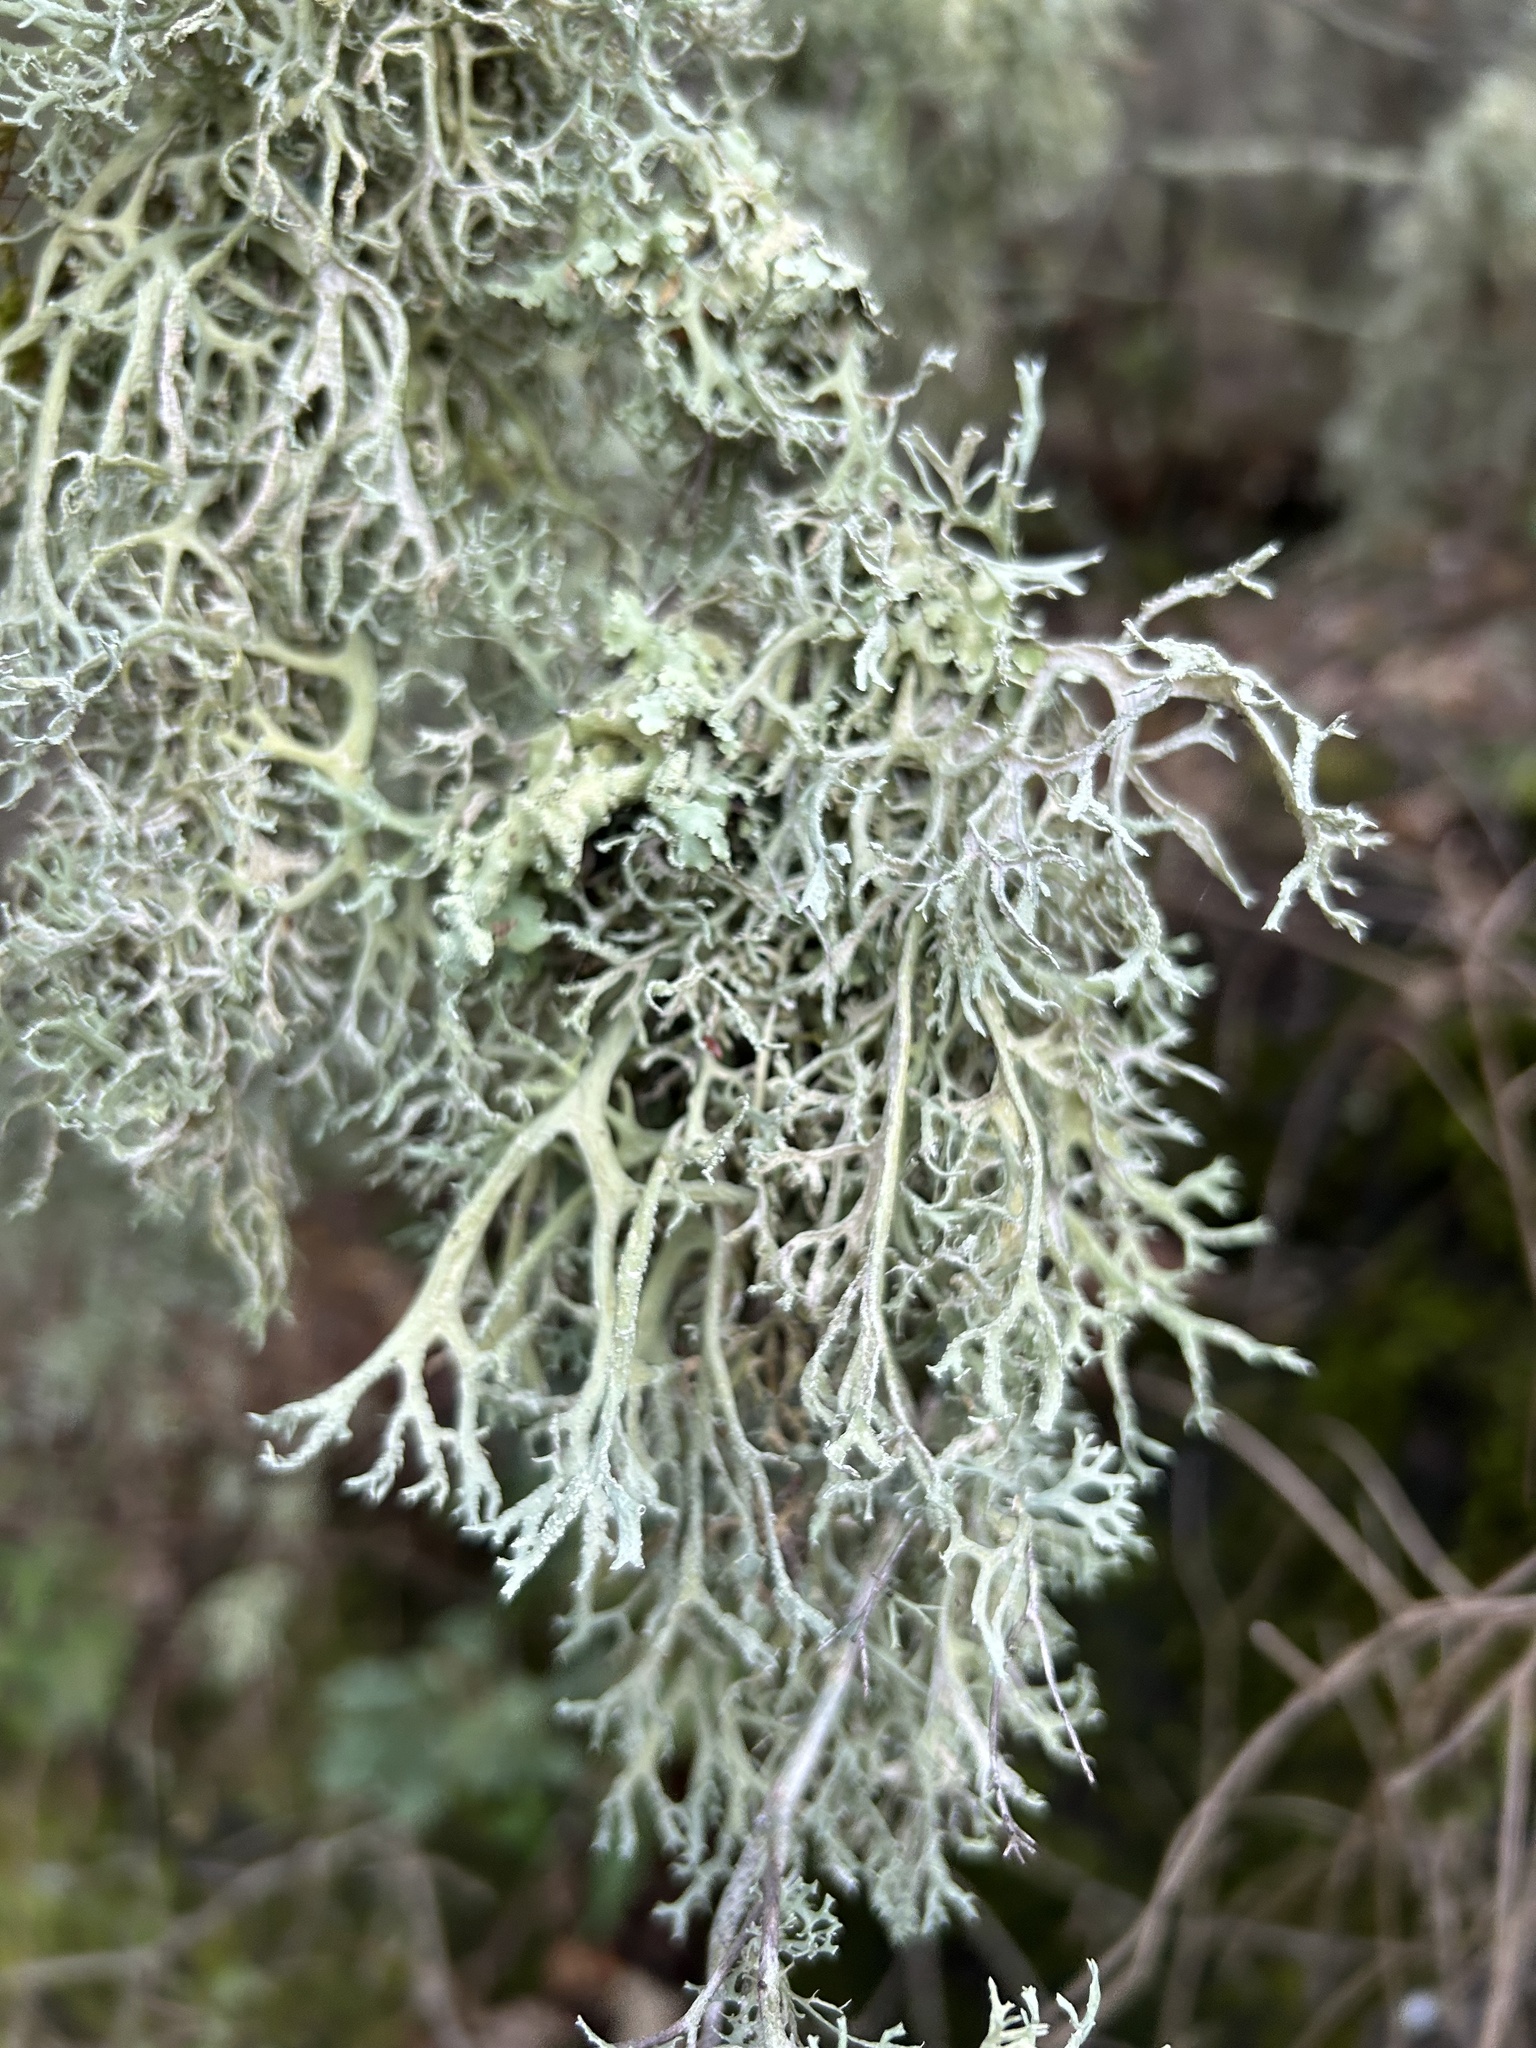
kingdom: Fungi
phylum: Ascomycota
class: Lecanoromycetes
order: Lecanorales
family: Parmeliaceae
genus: Evernia
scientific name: Evernia prunastri
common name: Oak moss
